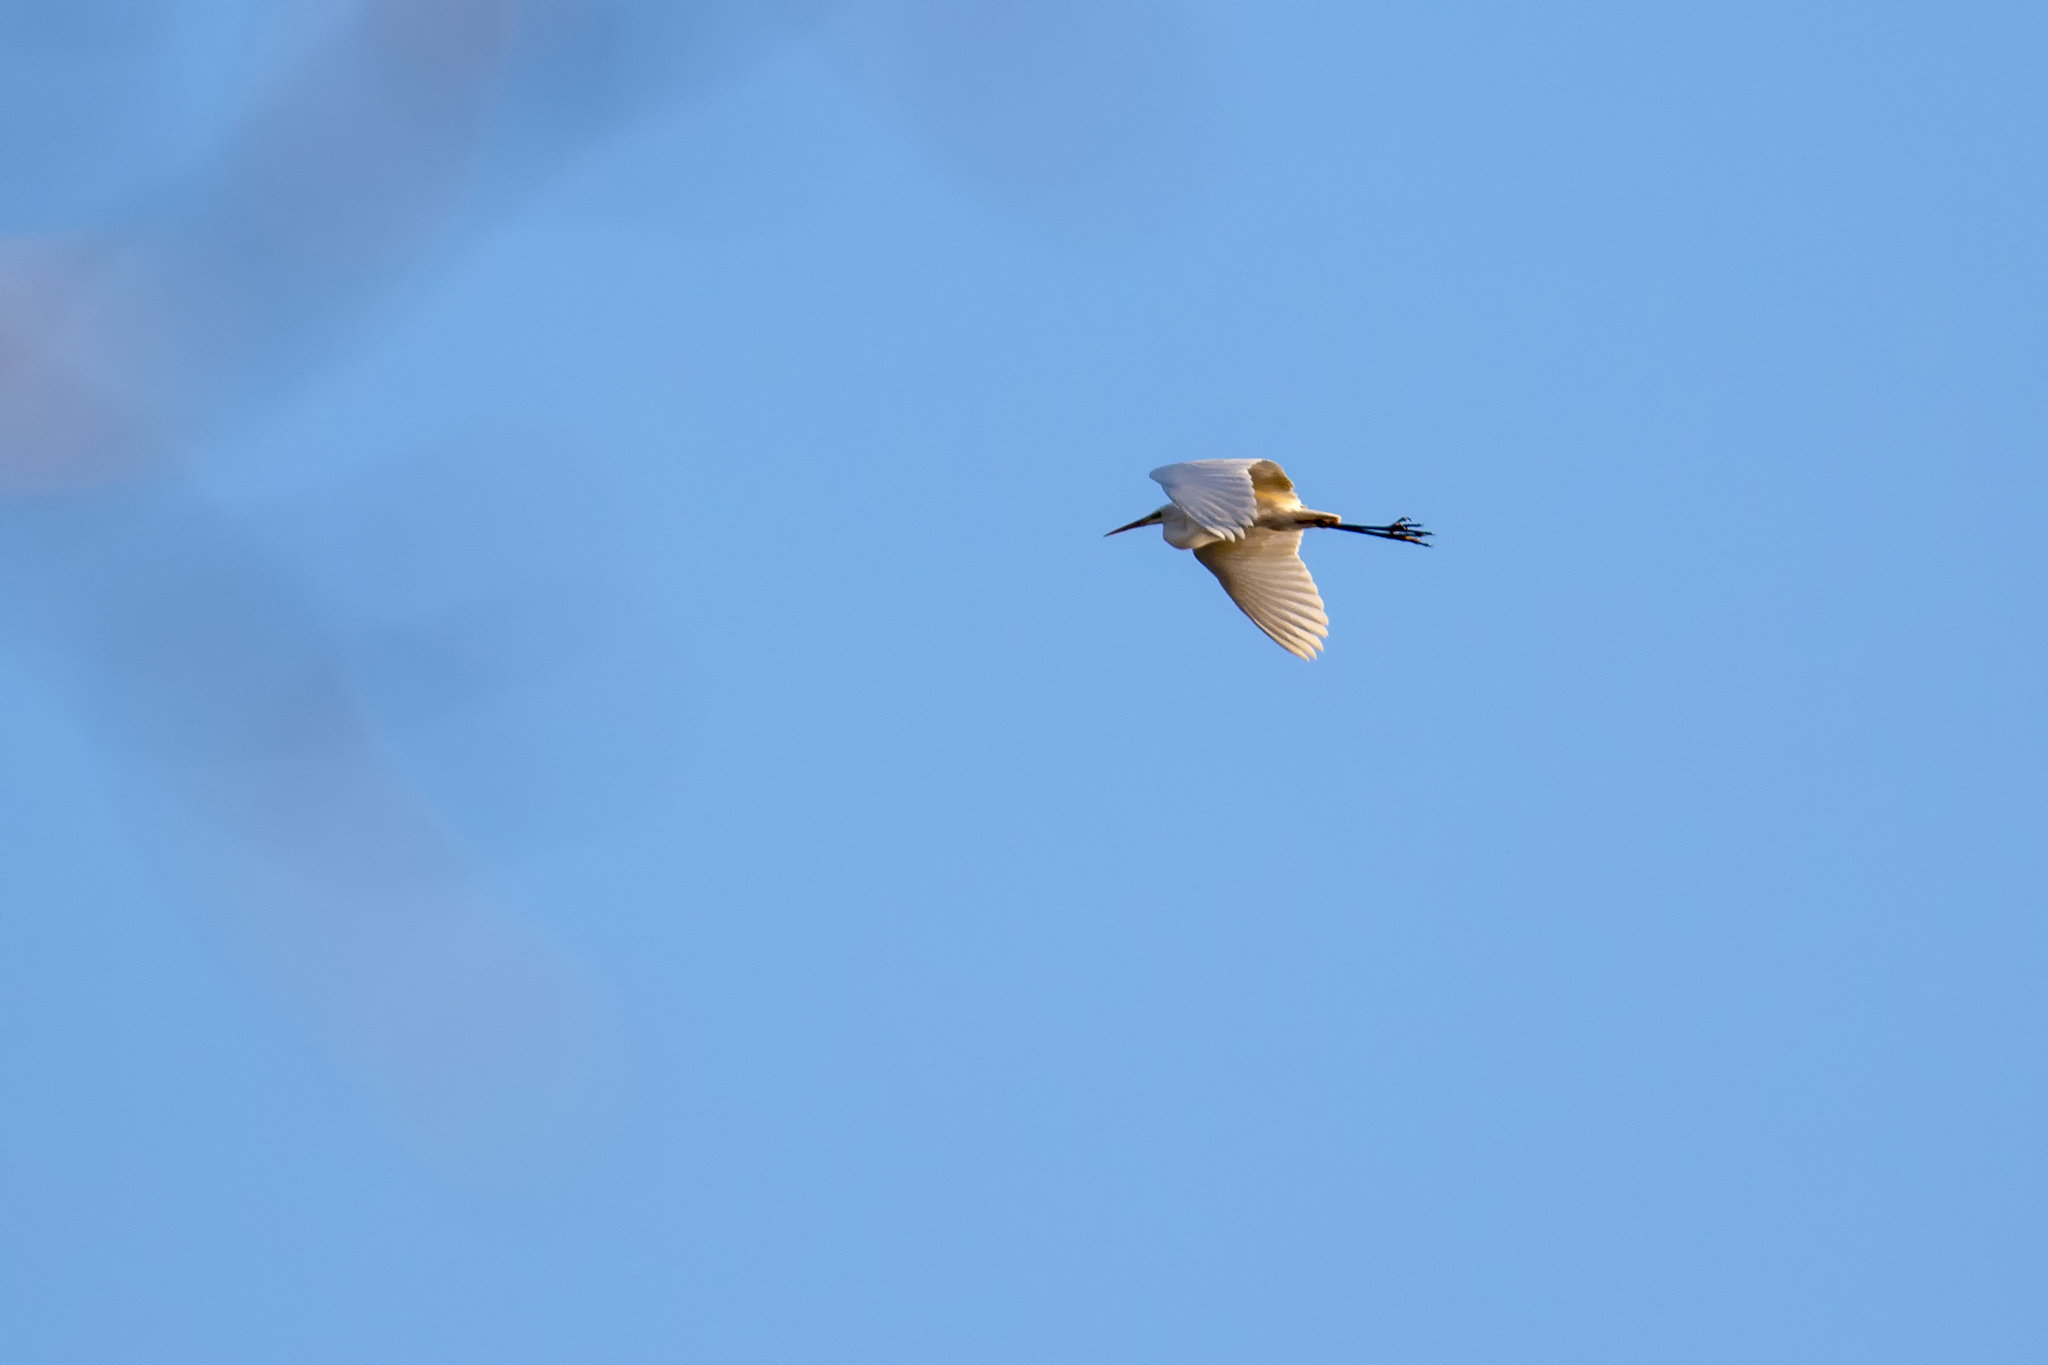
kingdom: Animalia
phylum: Chordata
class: Aves
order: Pelecaniformes
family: Ardeidae
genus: Ardea
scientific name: Ardea alba
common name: Great egret
